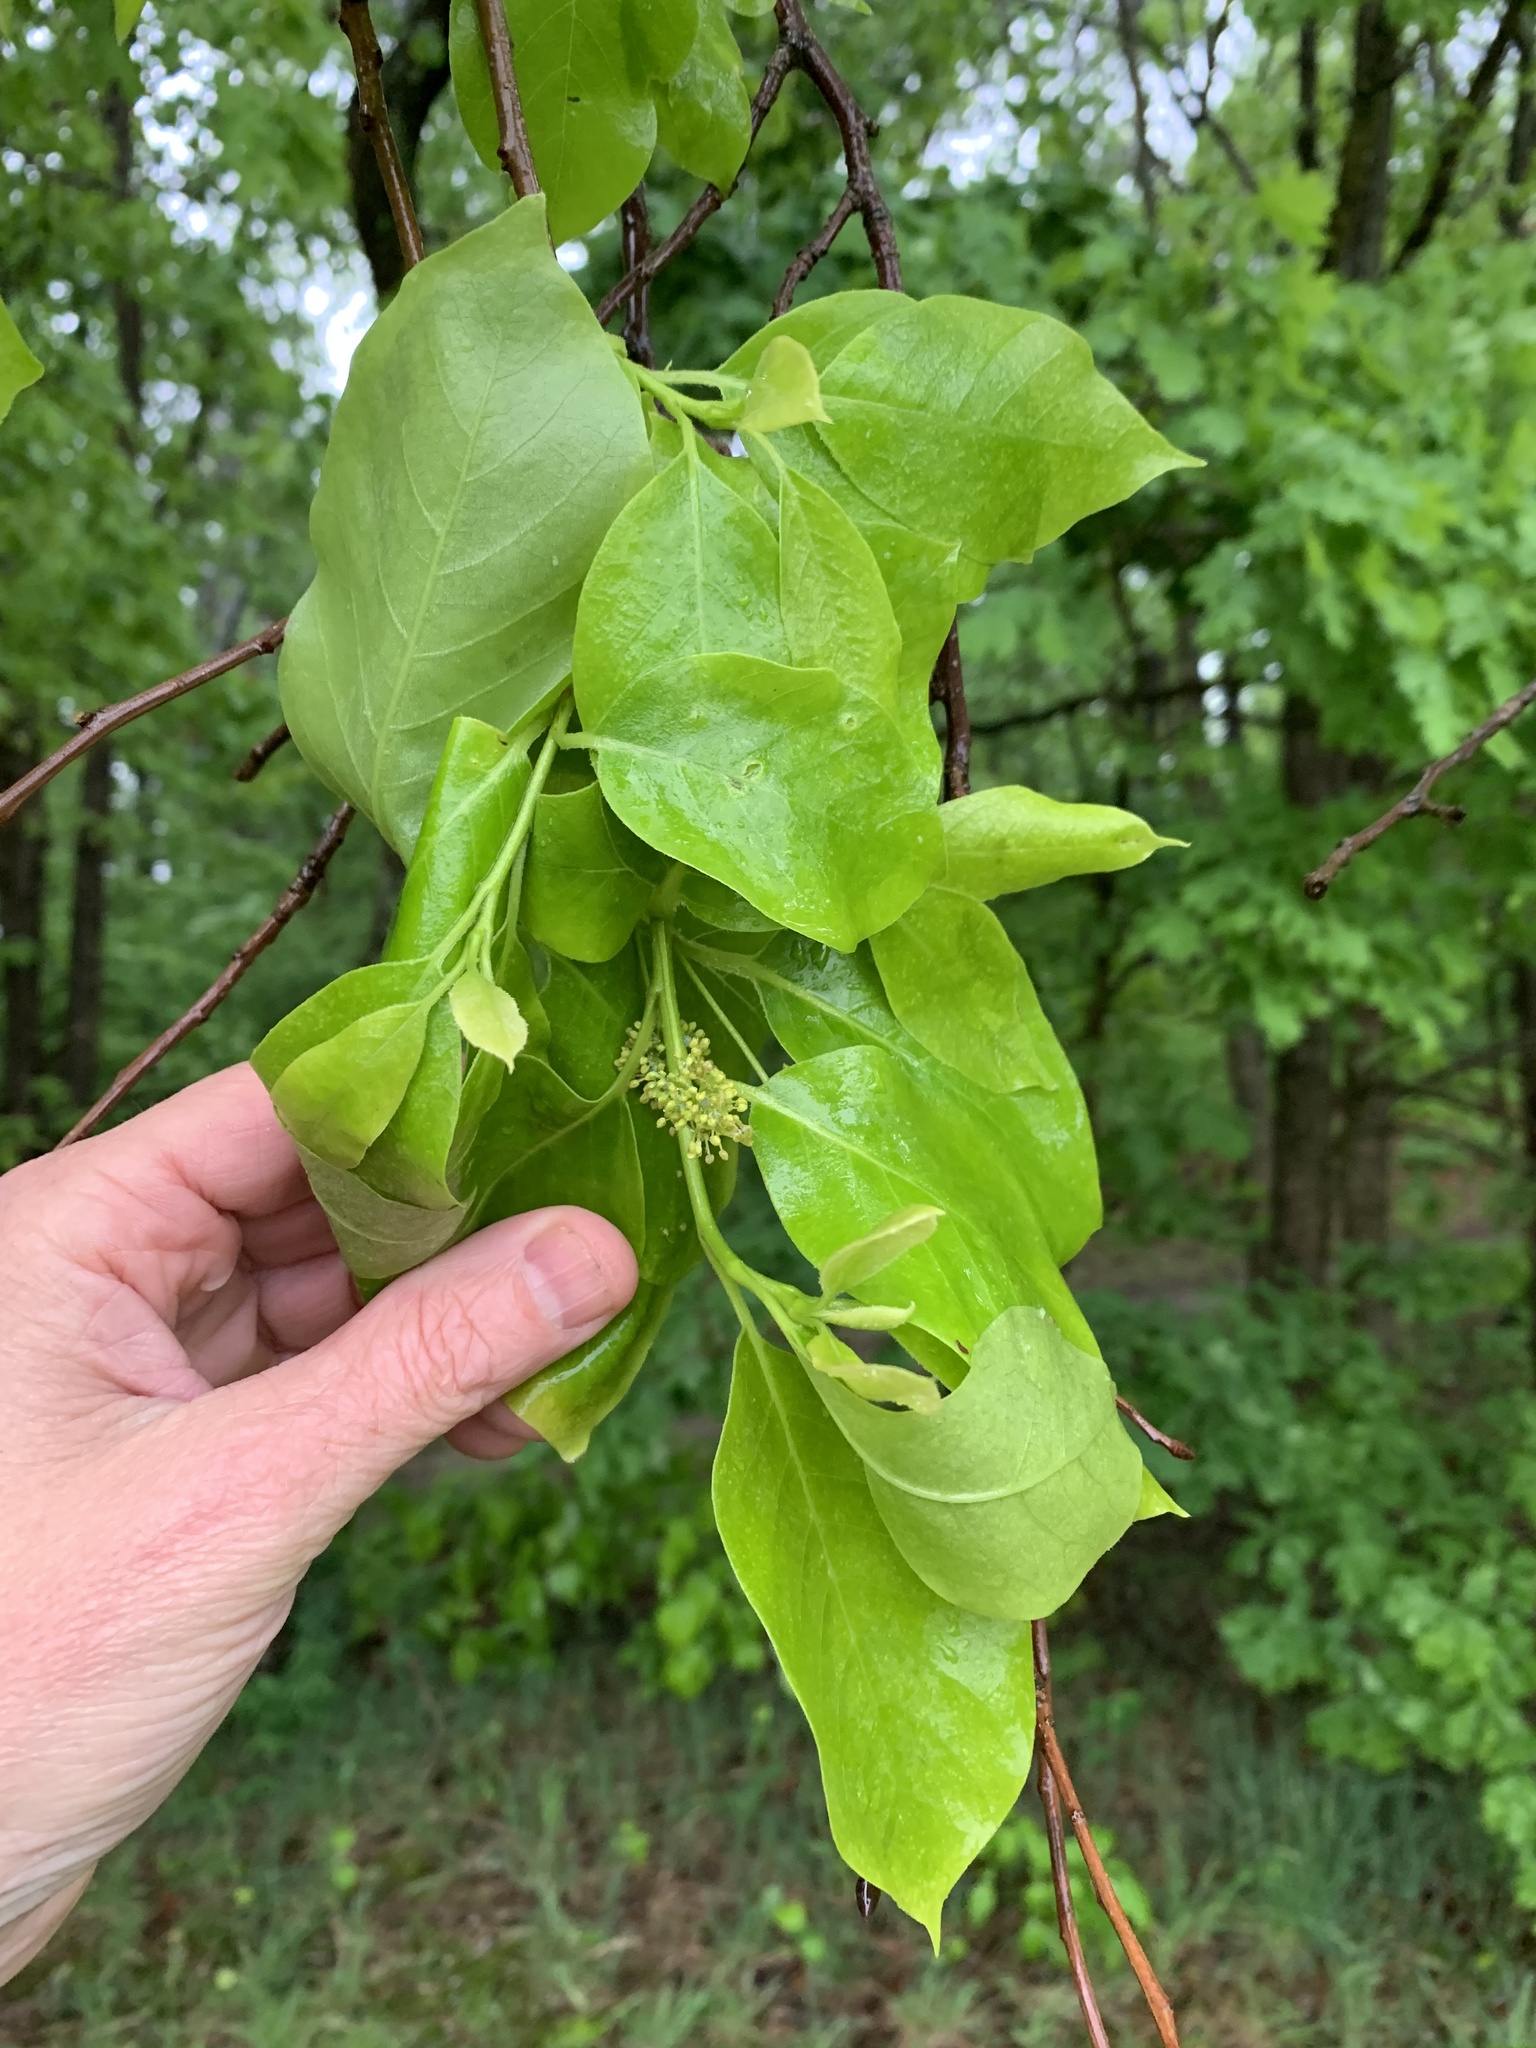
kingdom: Plantae
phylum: Tracheophyta
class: Magnoliopsida
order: Cornales
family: Nyssaceae
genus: Nyssa
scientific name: Nyssa sylvatica
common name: Black tupelo
